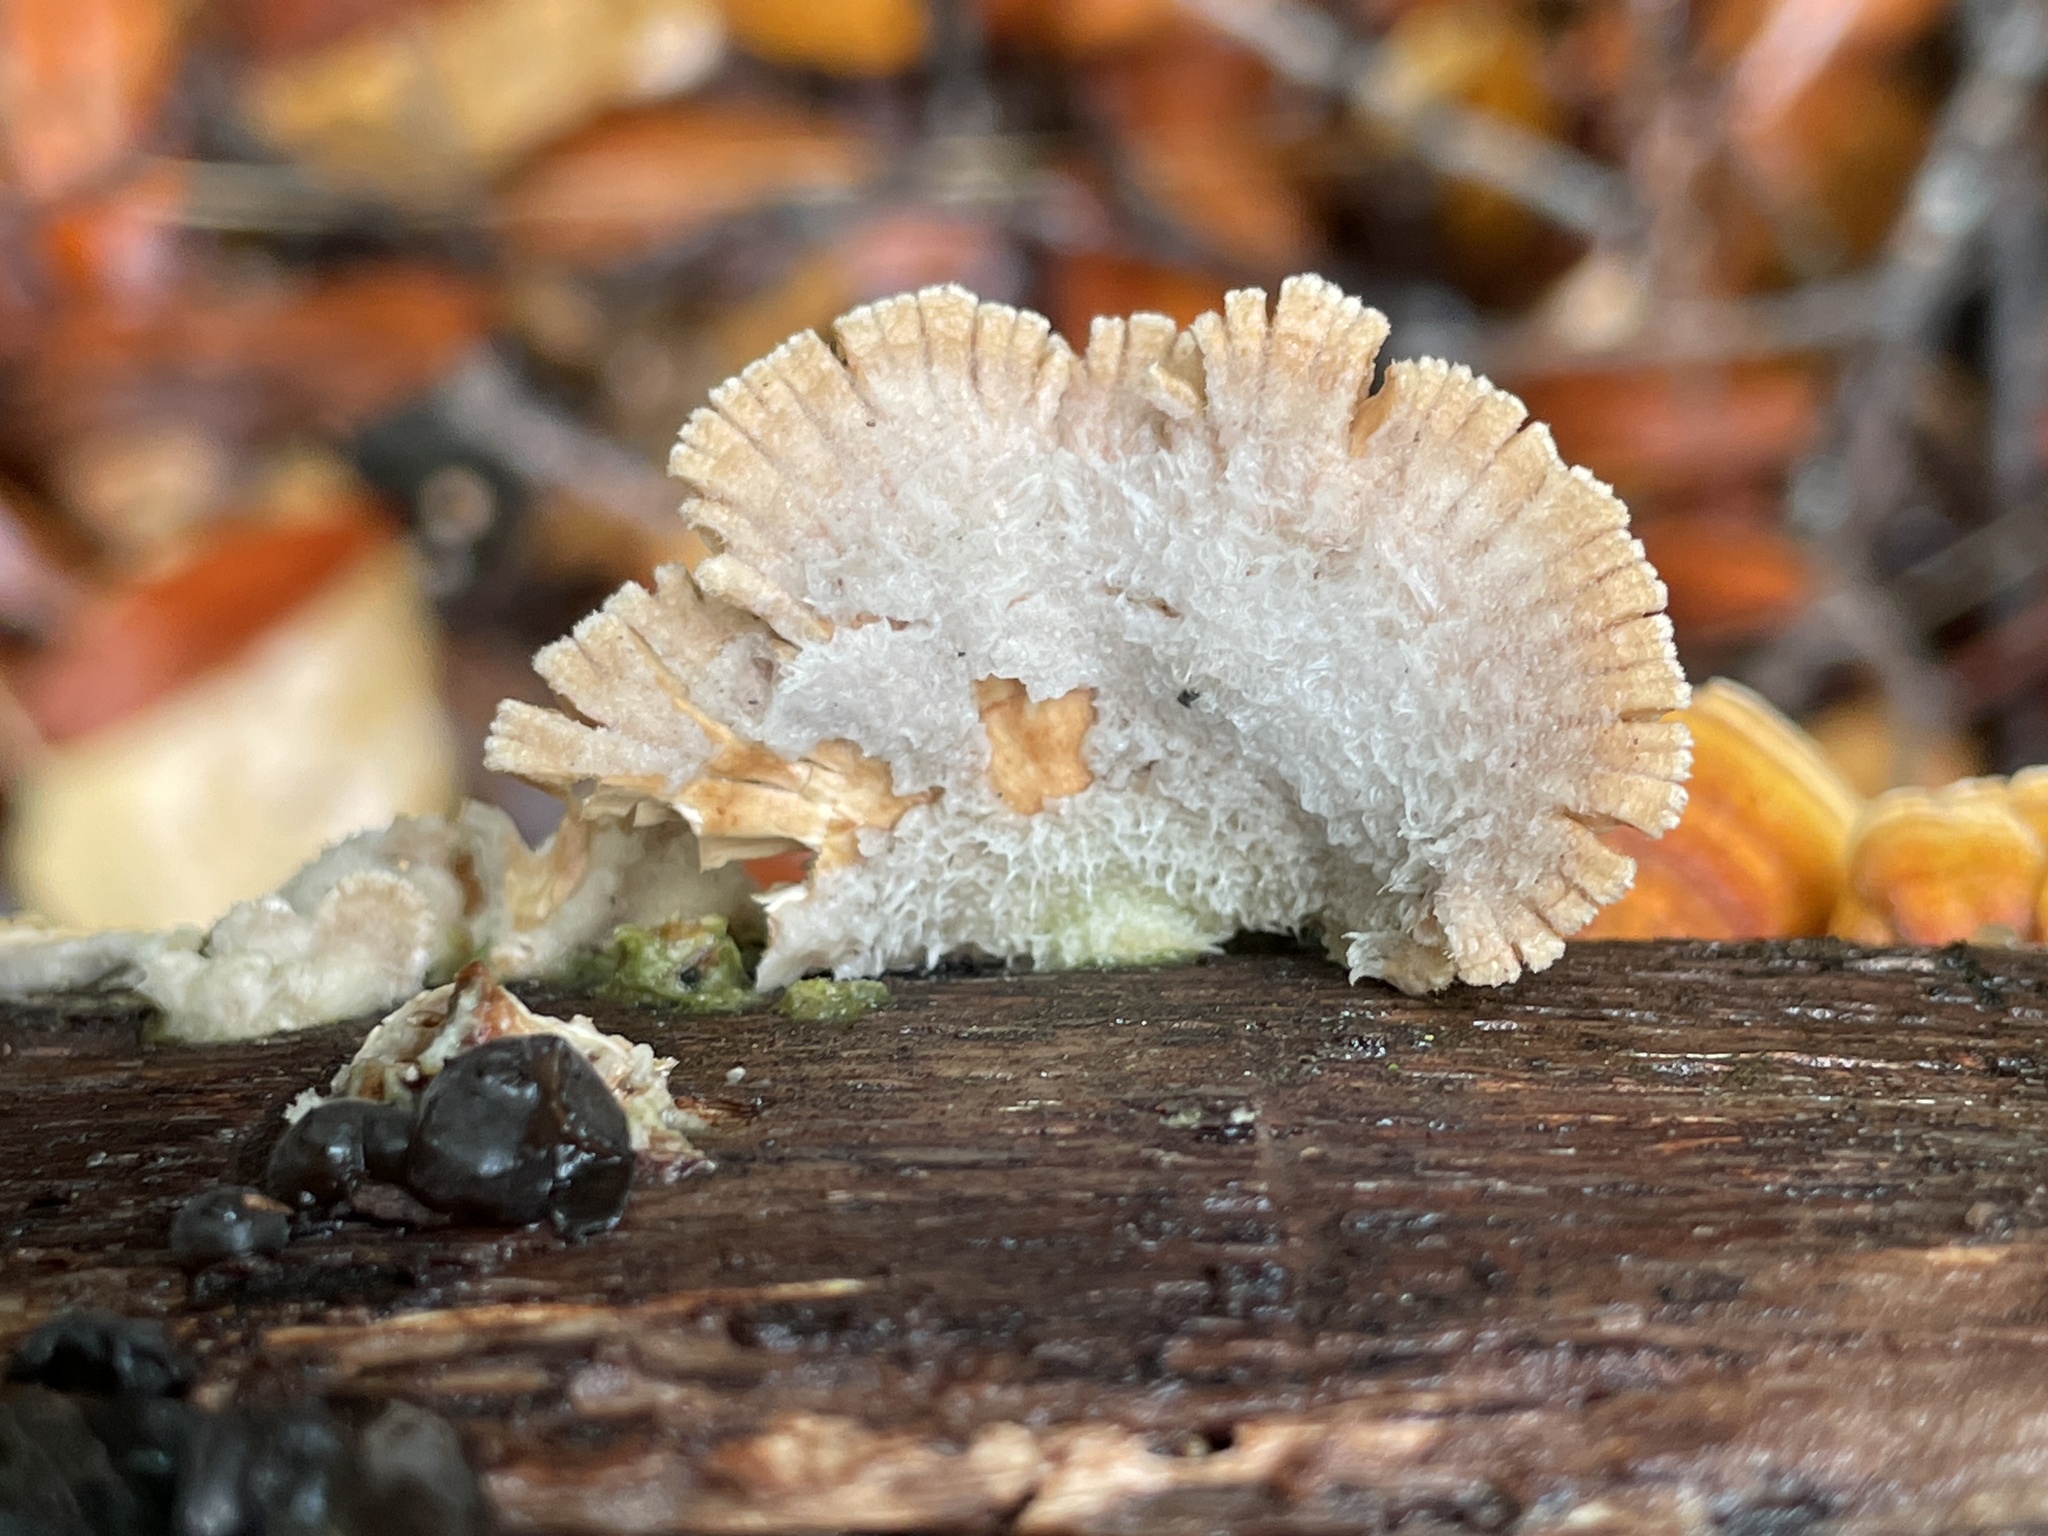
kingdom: Fungi
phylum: Basidiomycota
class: Agaricomycetes
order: Agaricales
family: Schizophyllaceae
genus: Schizophyllum
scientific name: Schizophyllum commune
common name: Common porecrust
